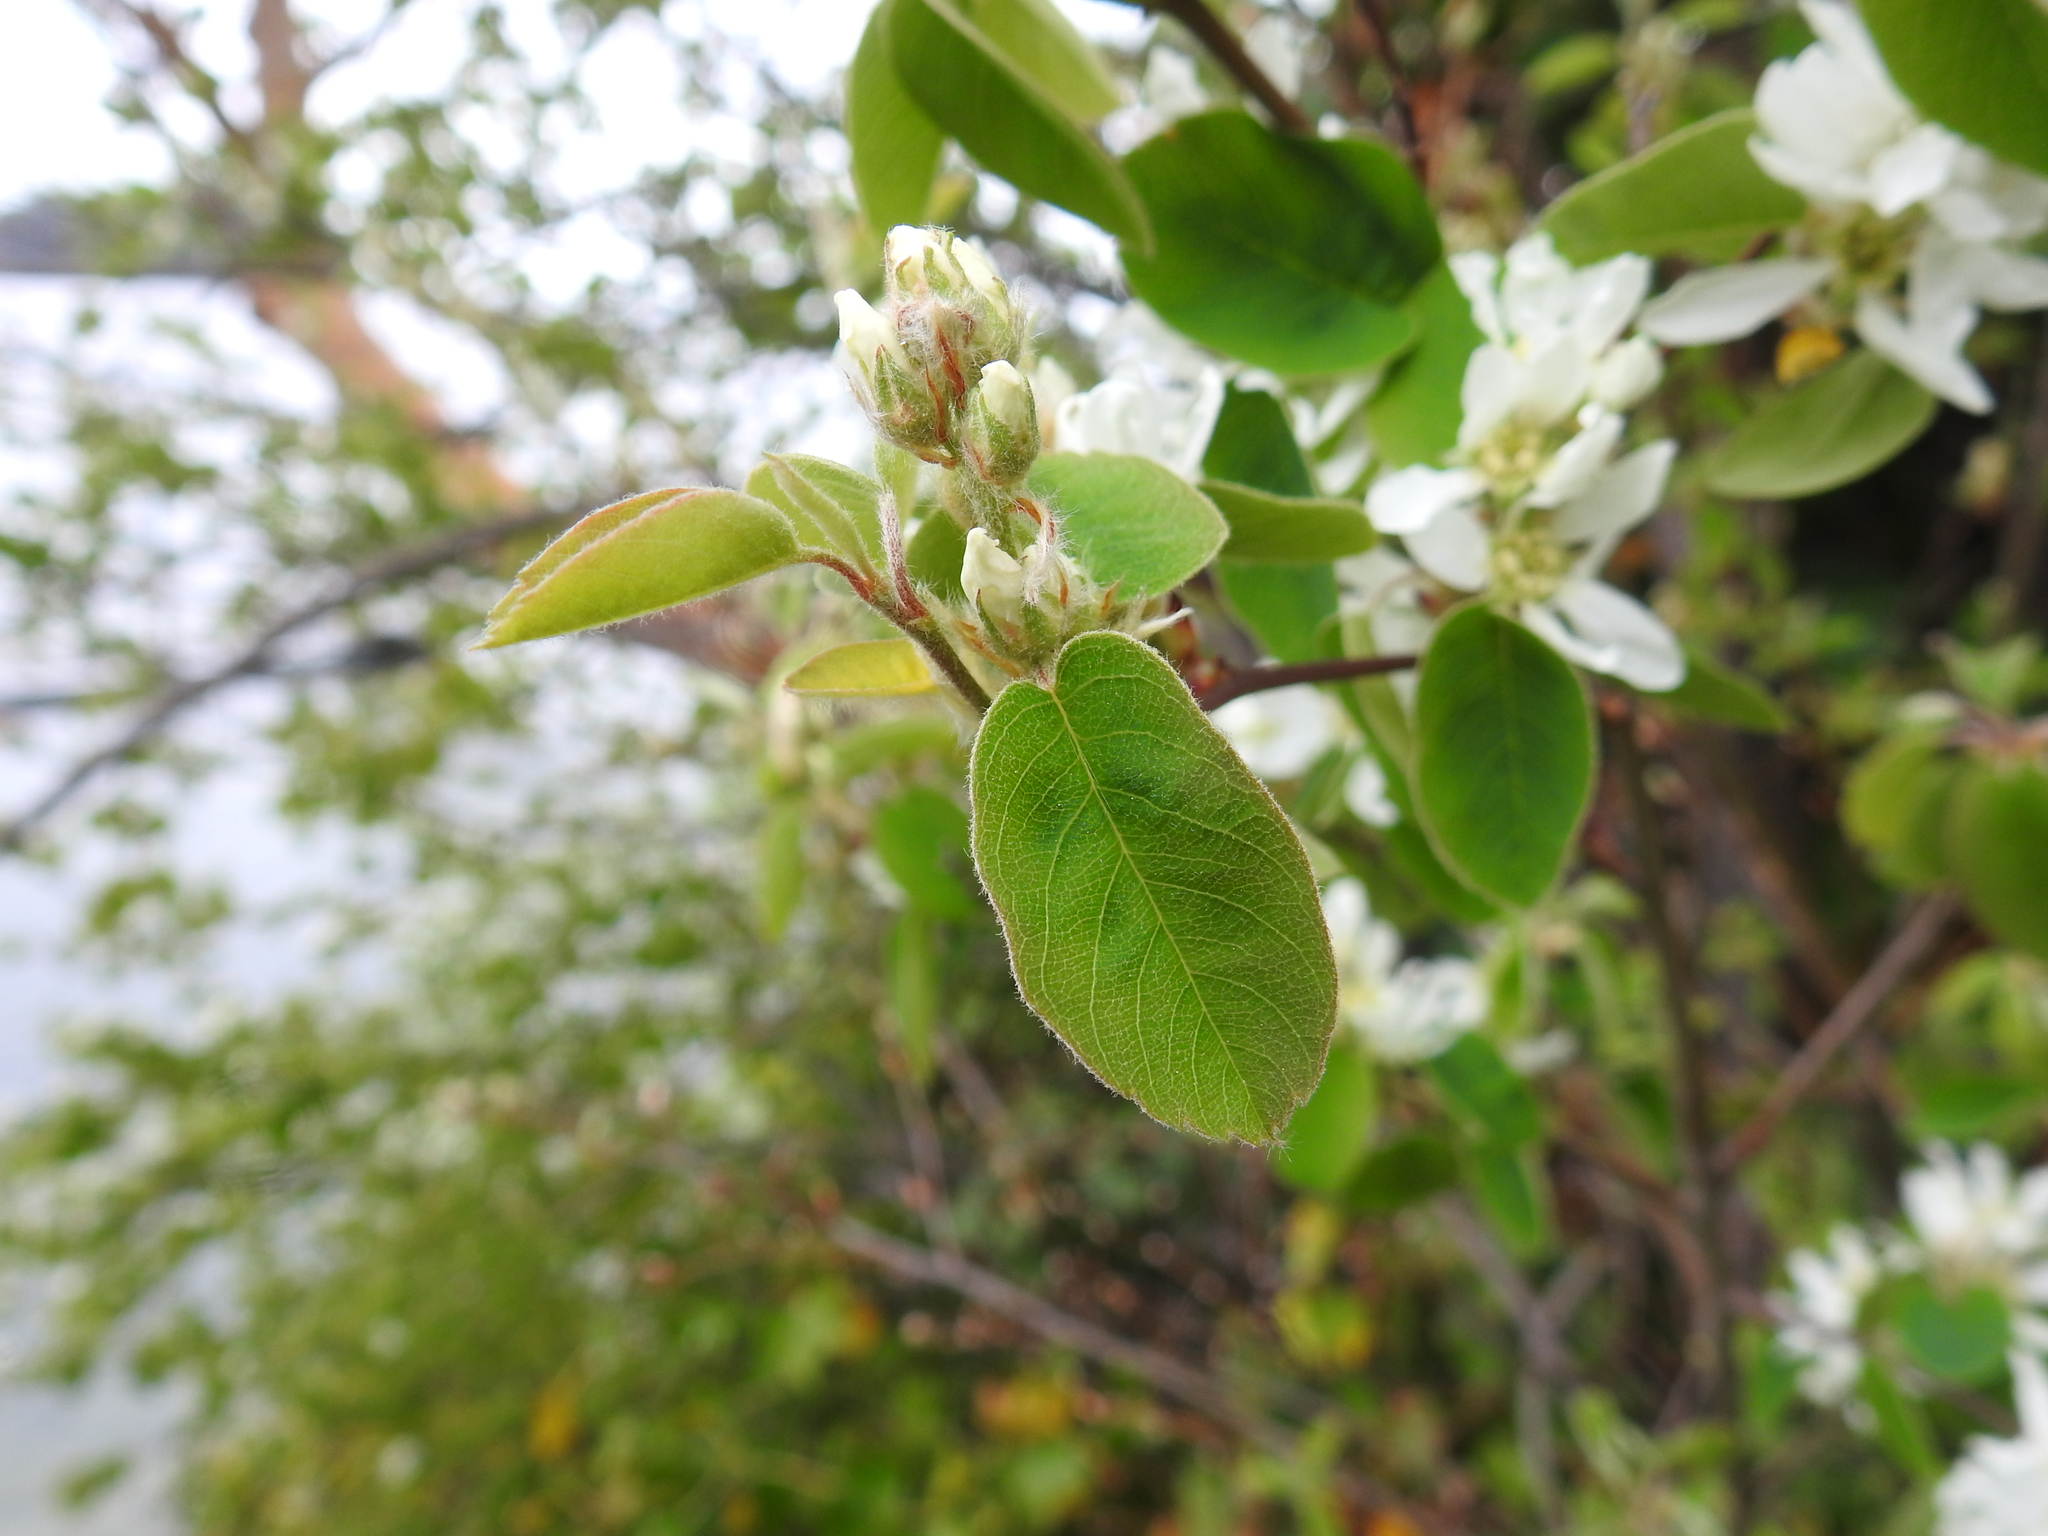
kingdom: Plantae
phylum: Tracheophyta
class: Magnoliopsida
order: Rosales
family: Rosaceae
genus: Amelanchier
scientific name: Amelanchier alnifolia
